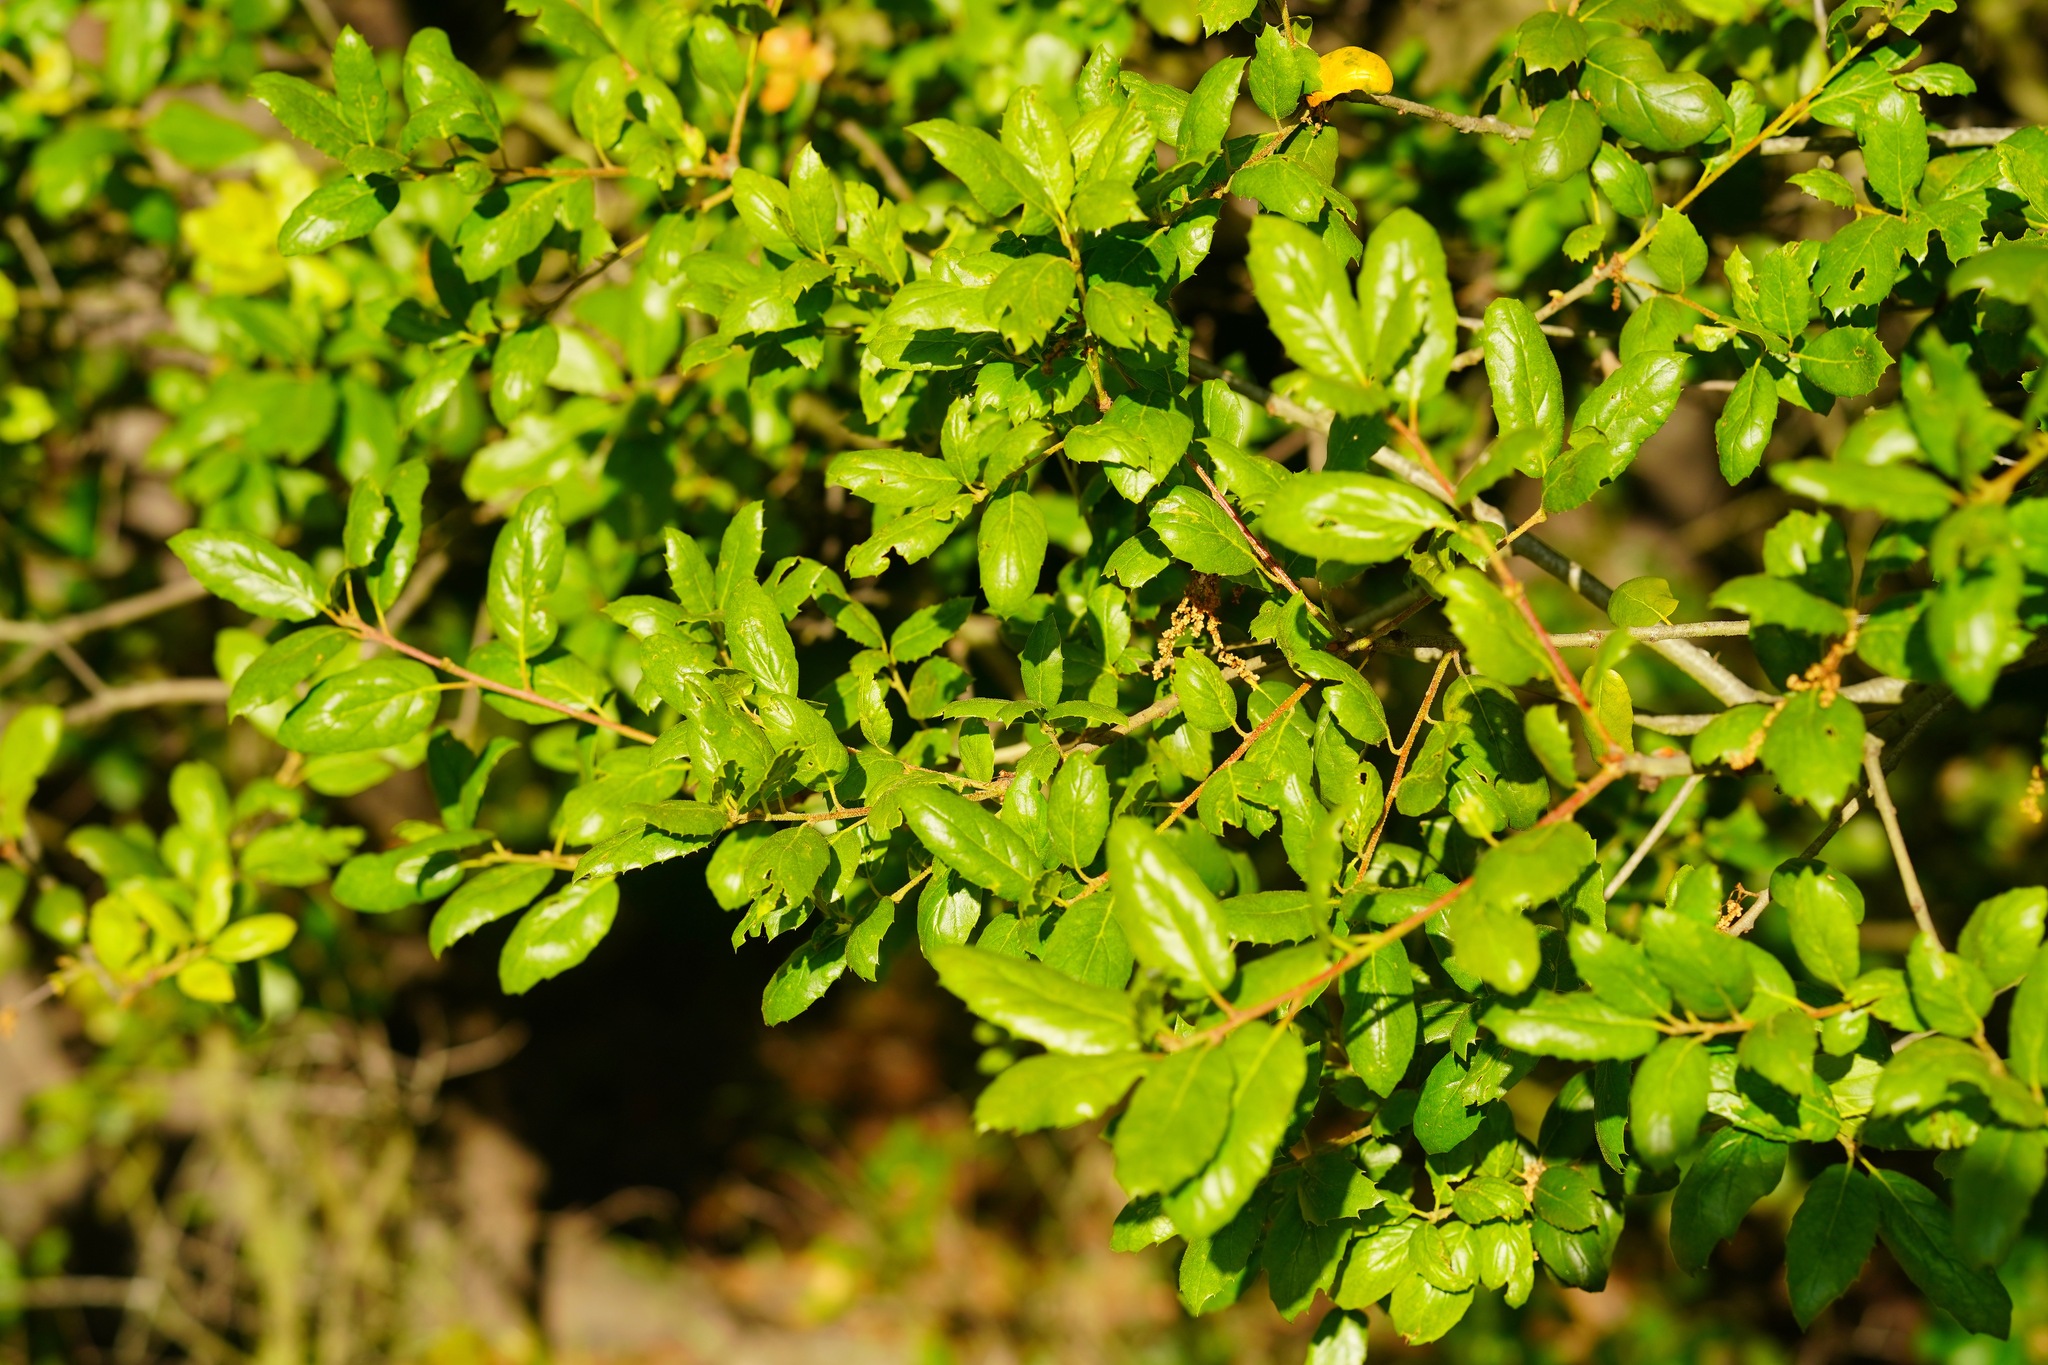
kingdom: Plantae
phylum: Tracheophyta
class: Magnoliopsida
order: Fagales
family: Fagaceae
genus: Quercus
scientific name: Quercus agrifolia
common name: California live oak
